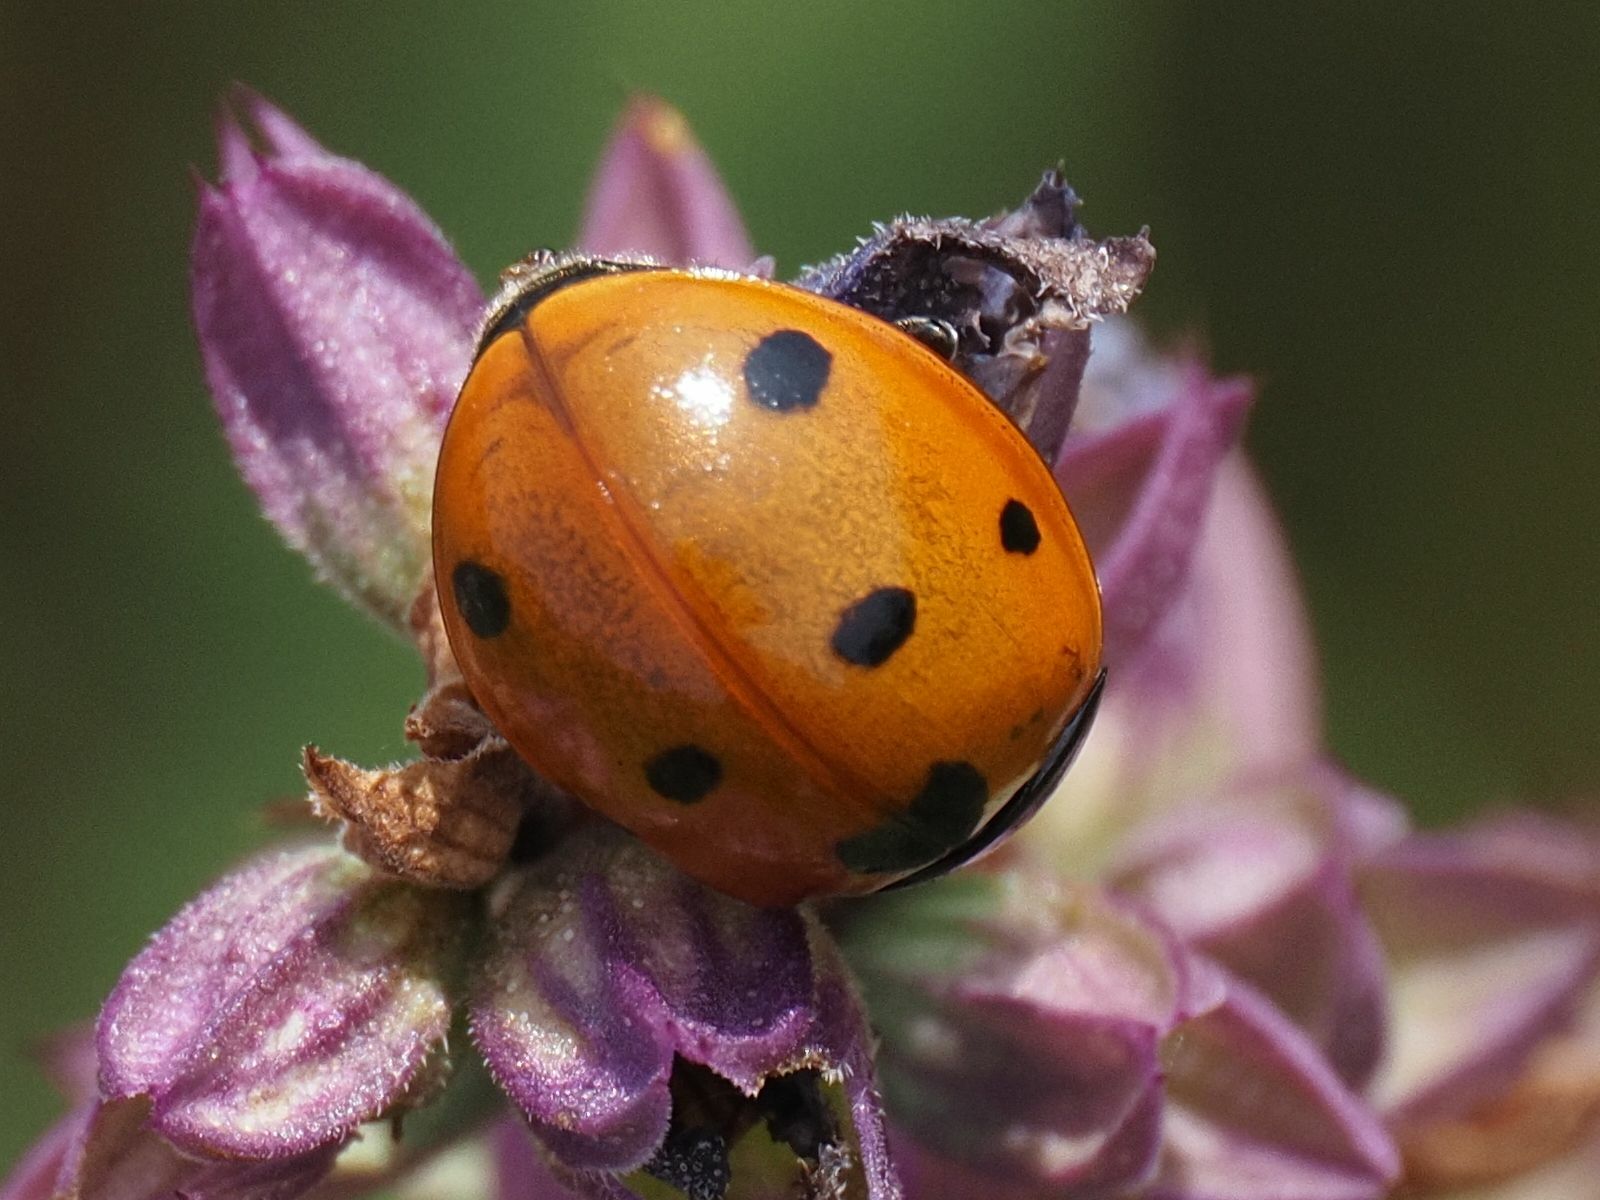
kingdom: Animalia
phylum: Arthropoda
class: Insecta
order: Coleoptera
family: Coccinellidae
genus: Coccinella
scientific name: Coccinella septempunctata
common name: Sevenspotted lady beetle
